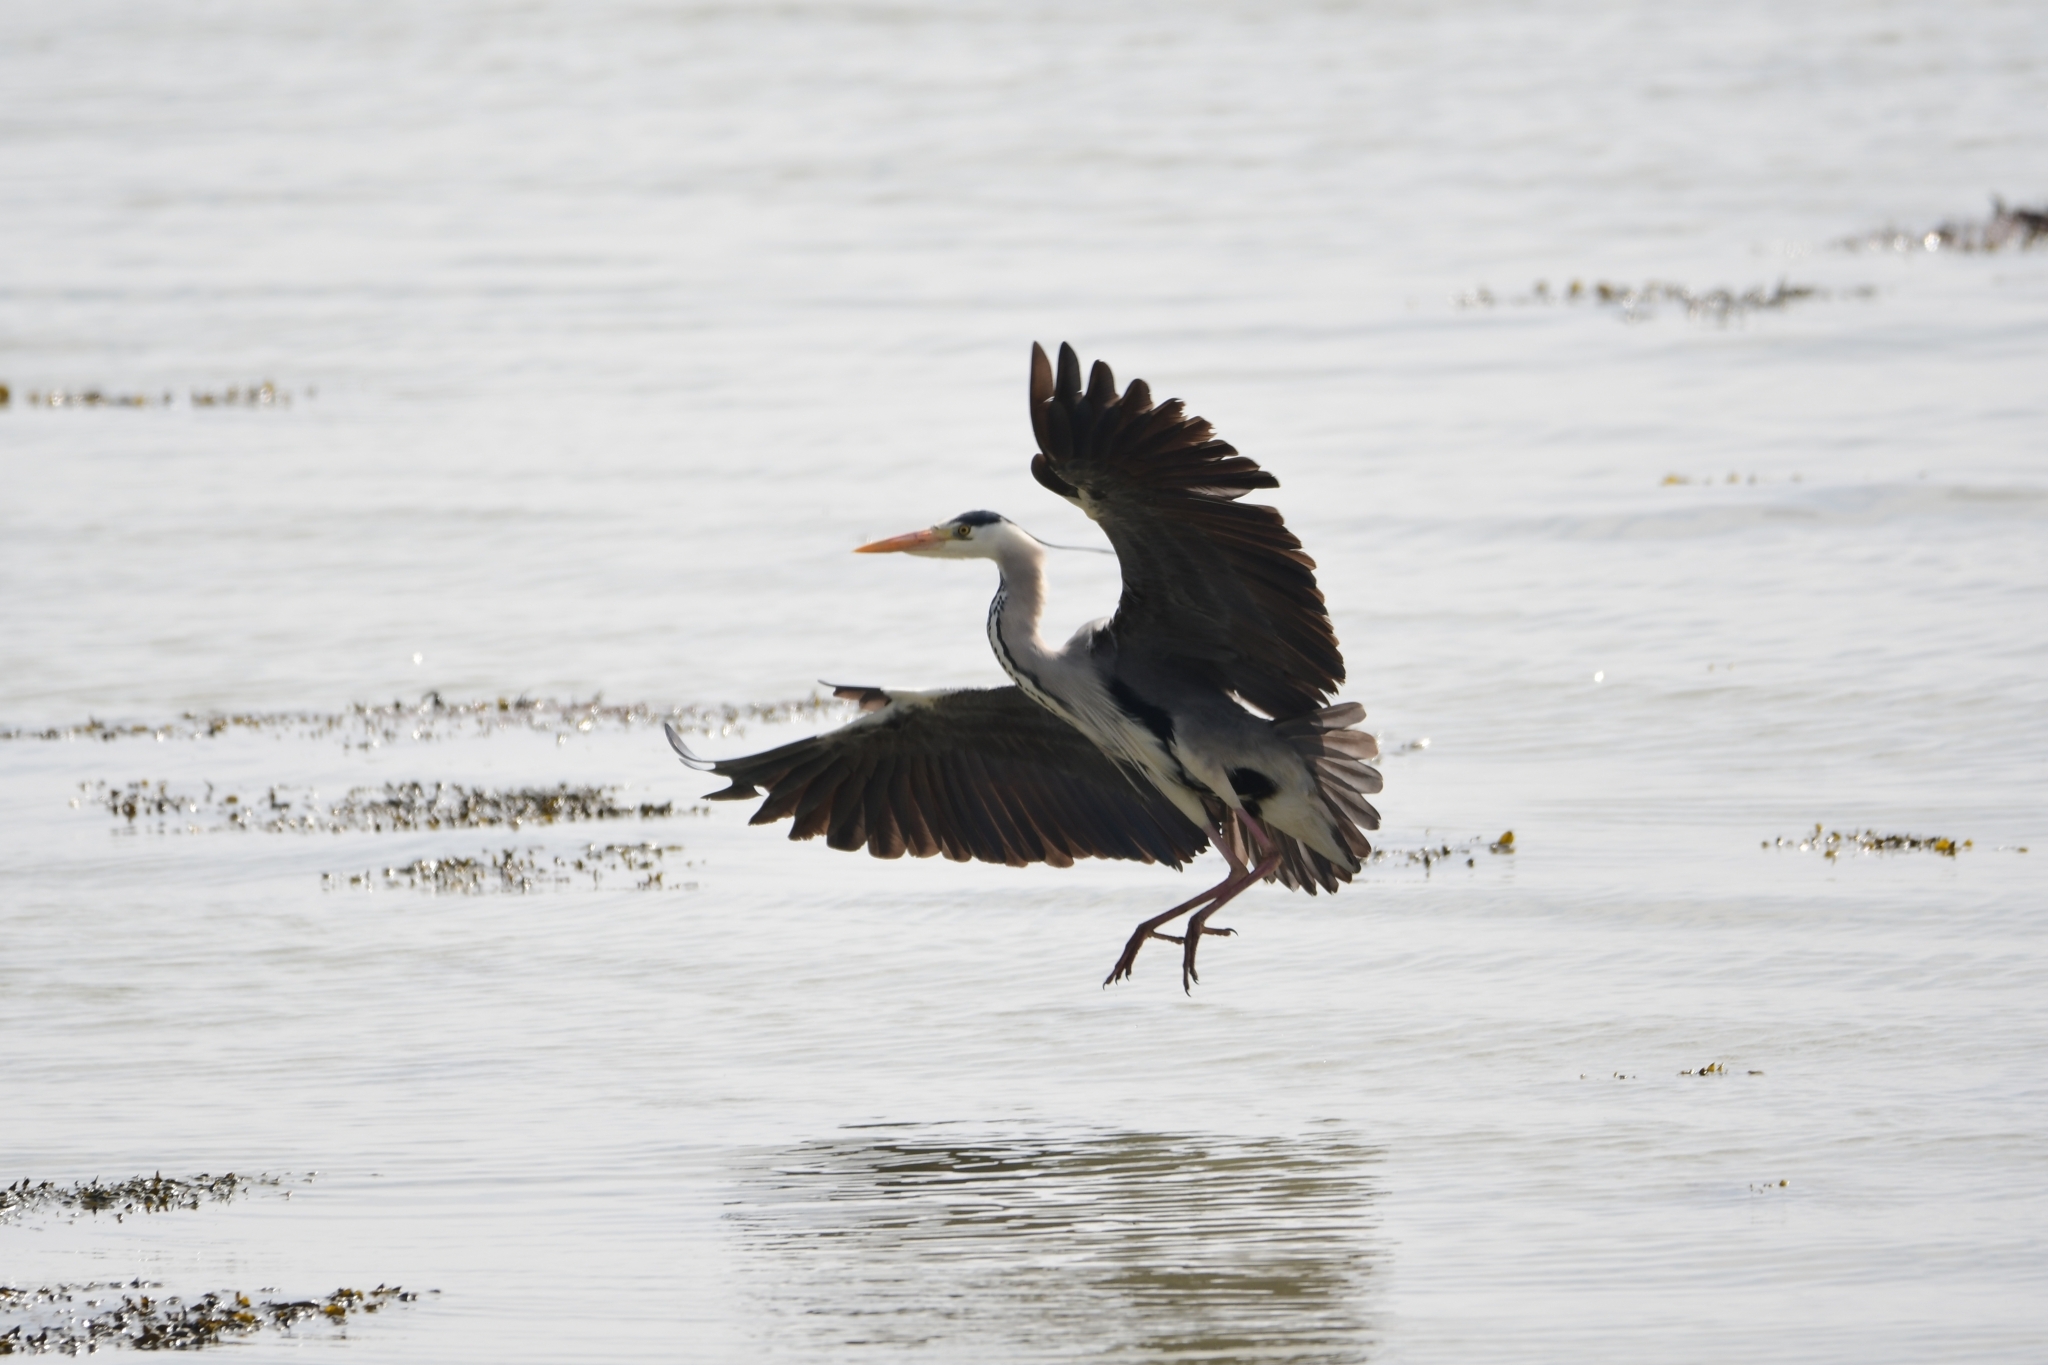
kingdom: Animalia
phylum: Chordata
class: Aves
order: Pelecaniformes
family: Ardeidae
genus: Ardea
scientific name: Ardea cinerea
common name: Grey heron
